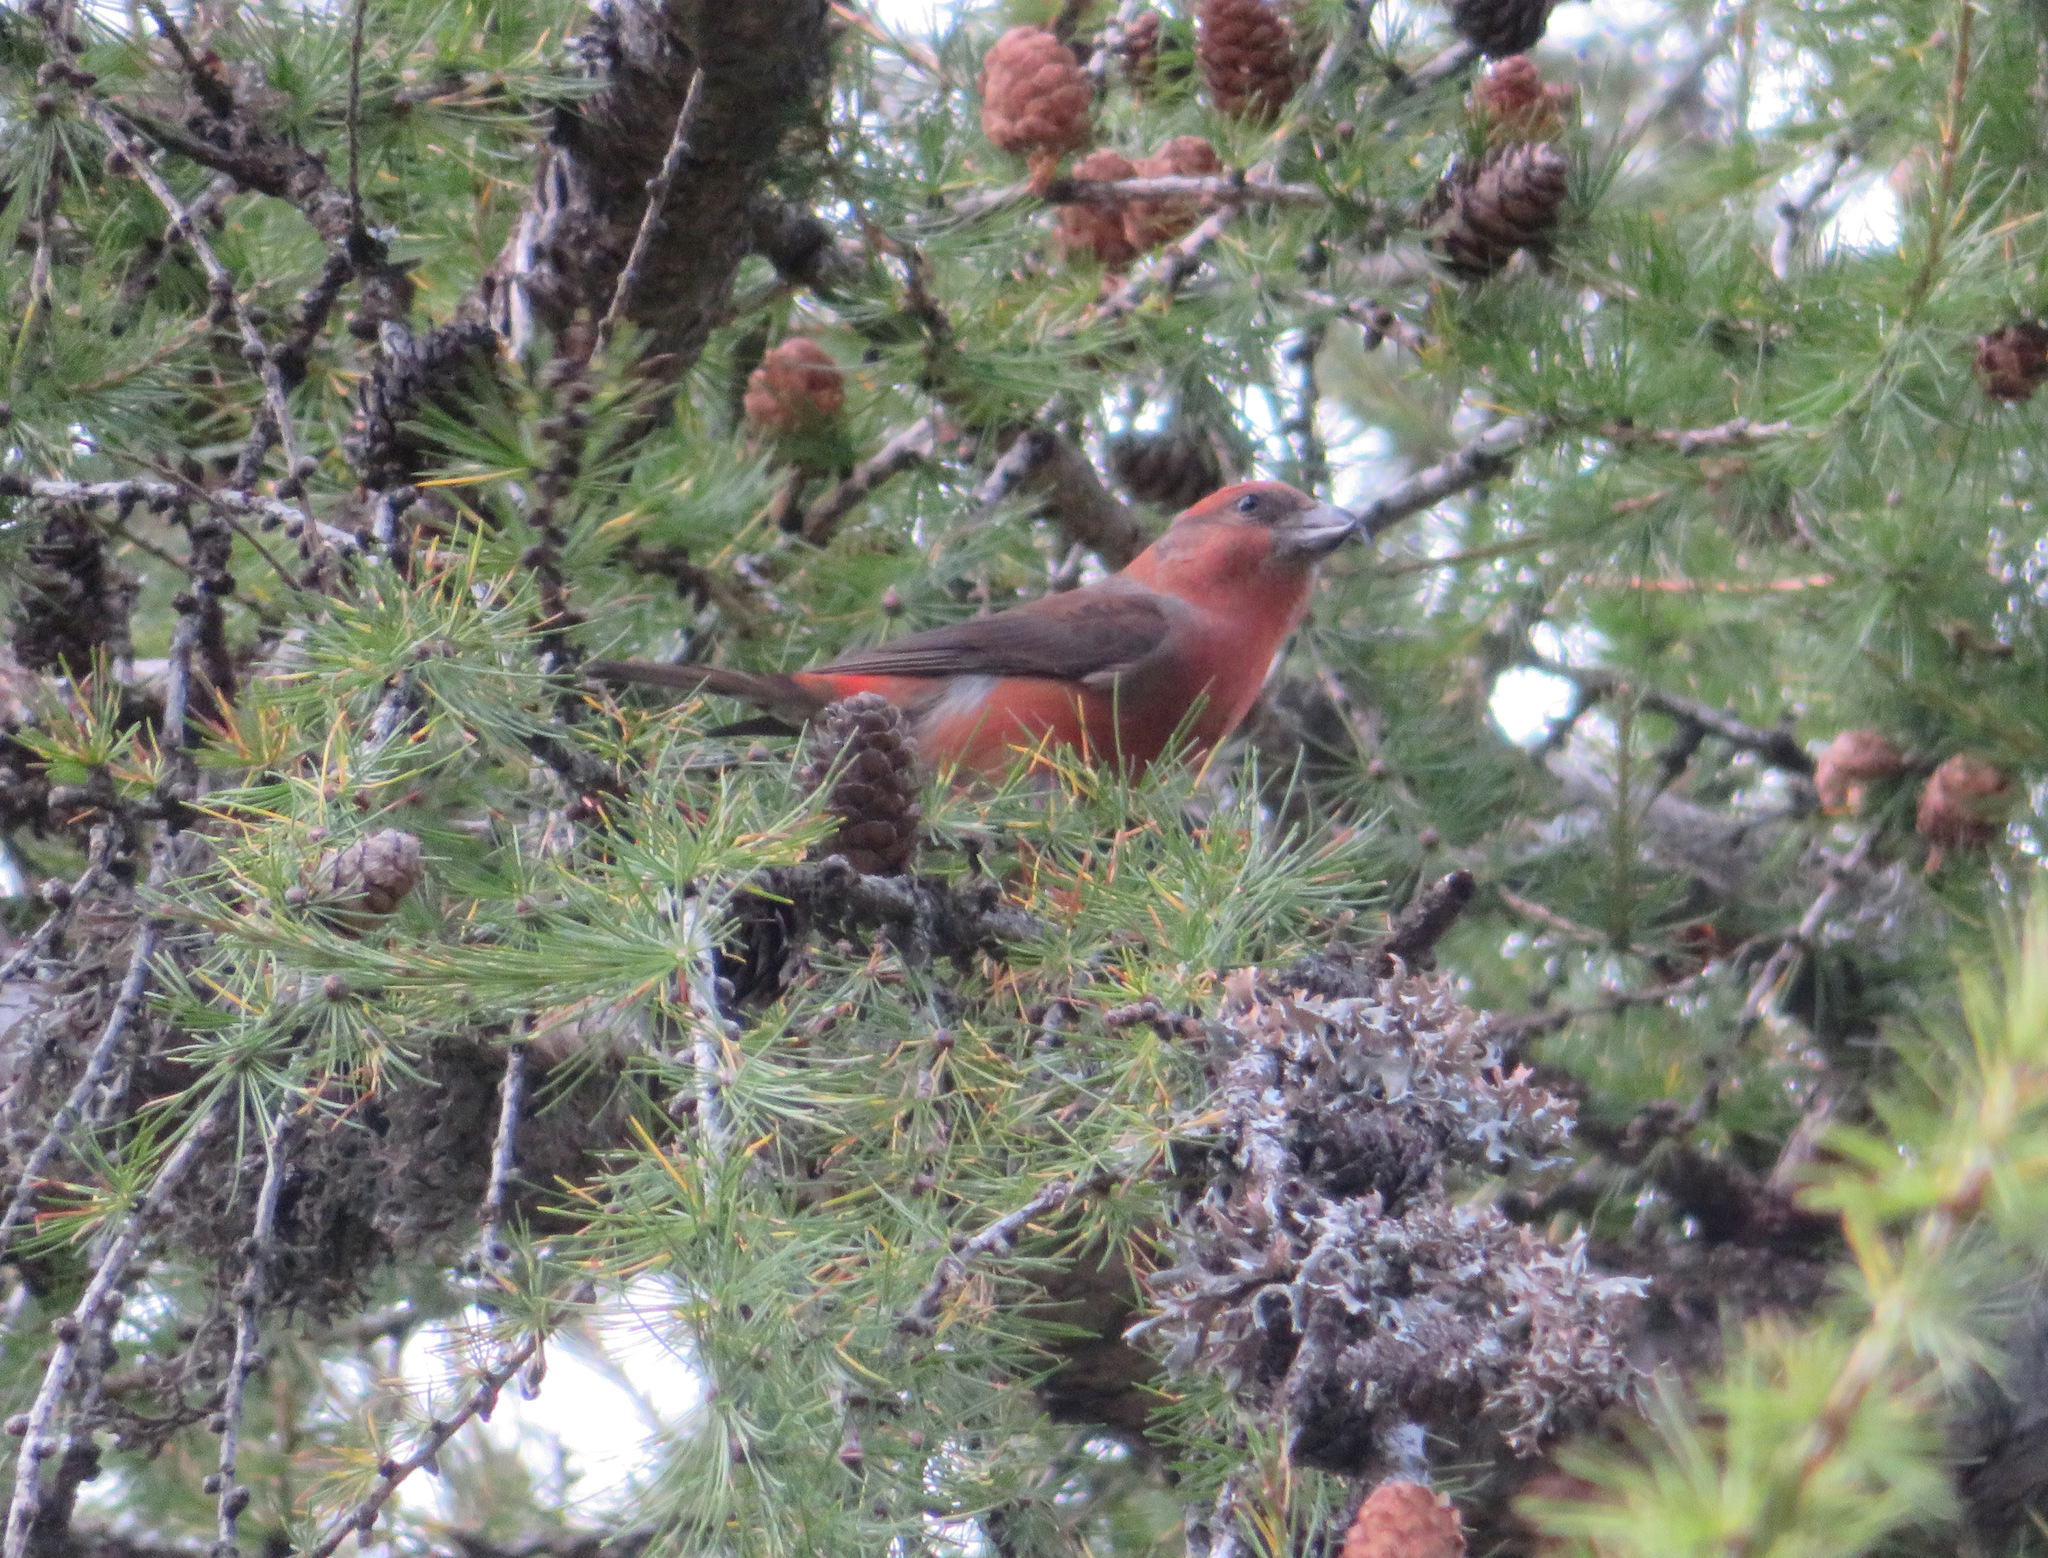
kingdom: Animalia
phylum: Chordata
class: Aves
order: Passeriformes
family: Fringillidae
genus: Loxia
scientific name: Loxia curvirostra
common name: Red crossbill
